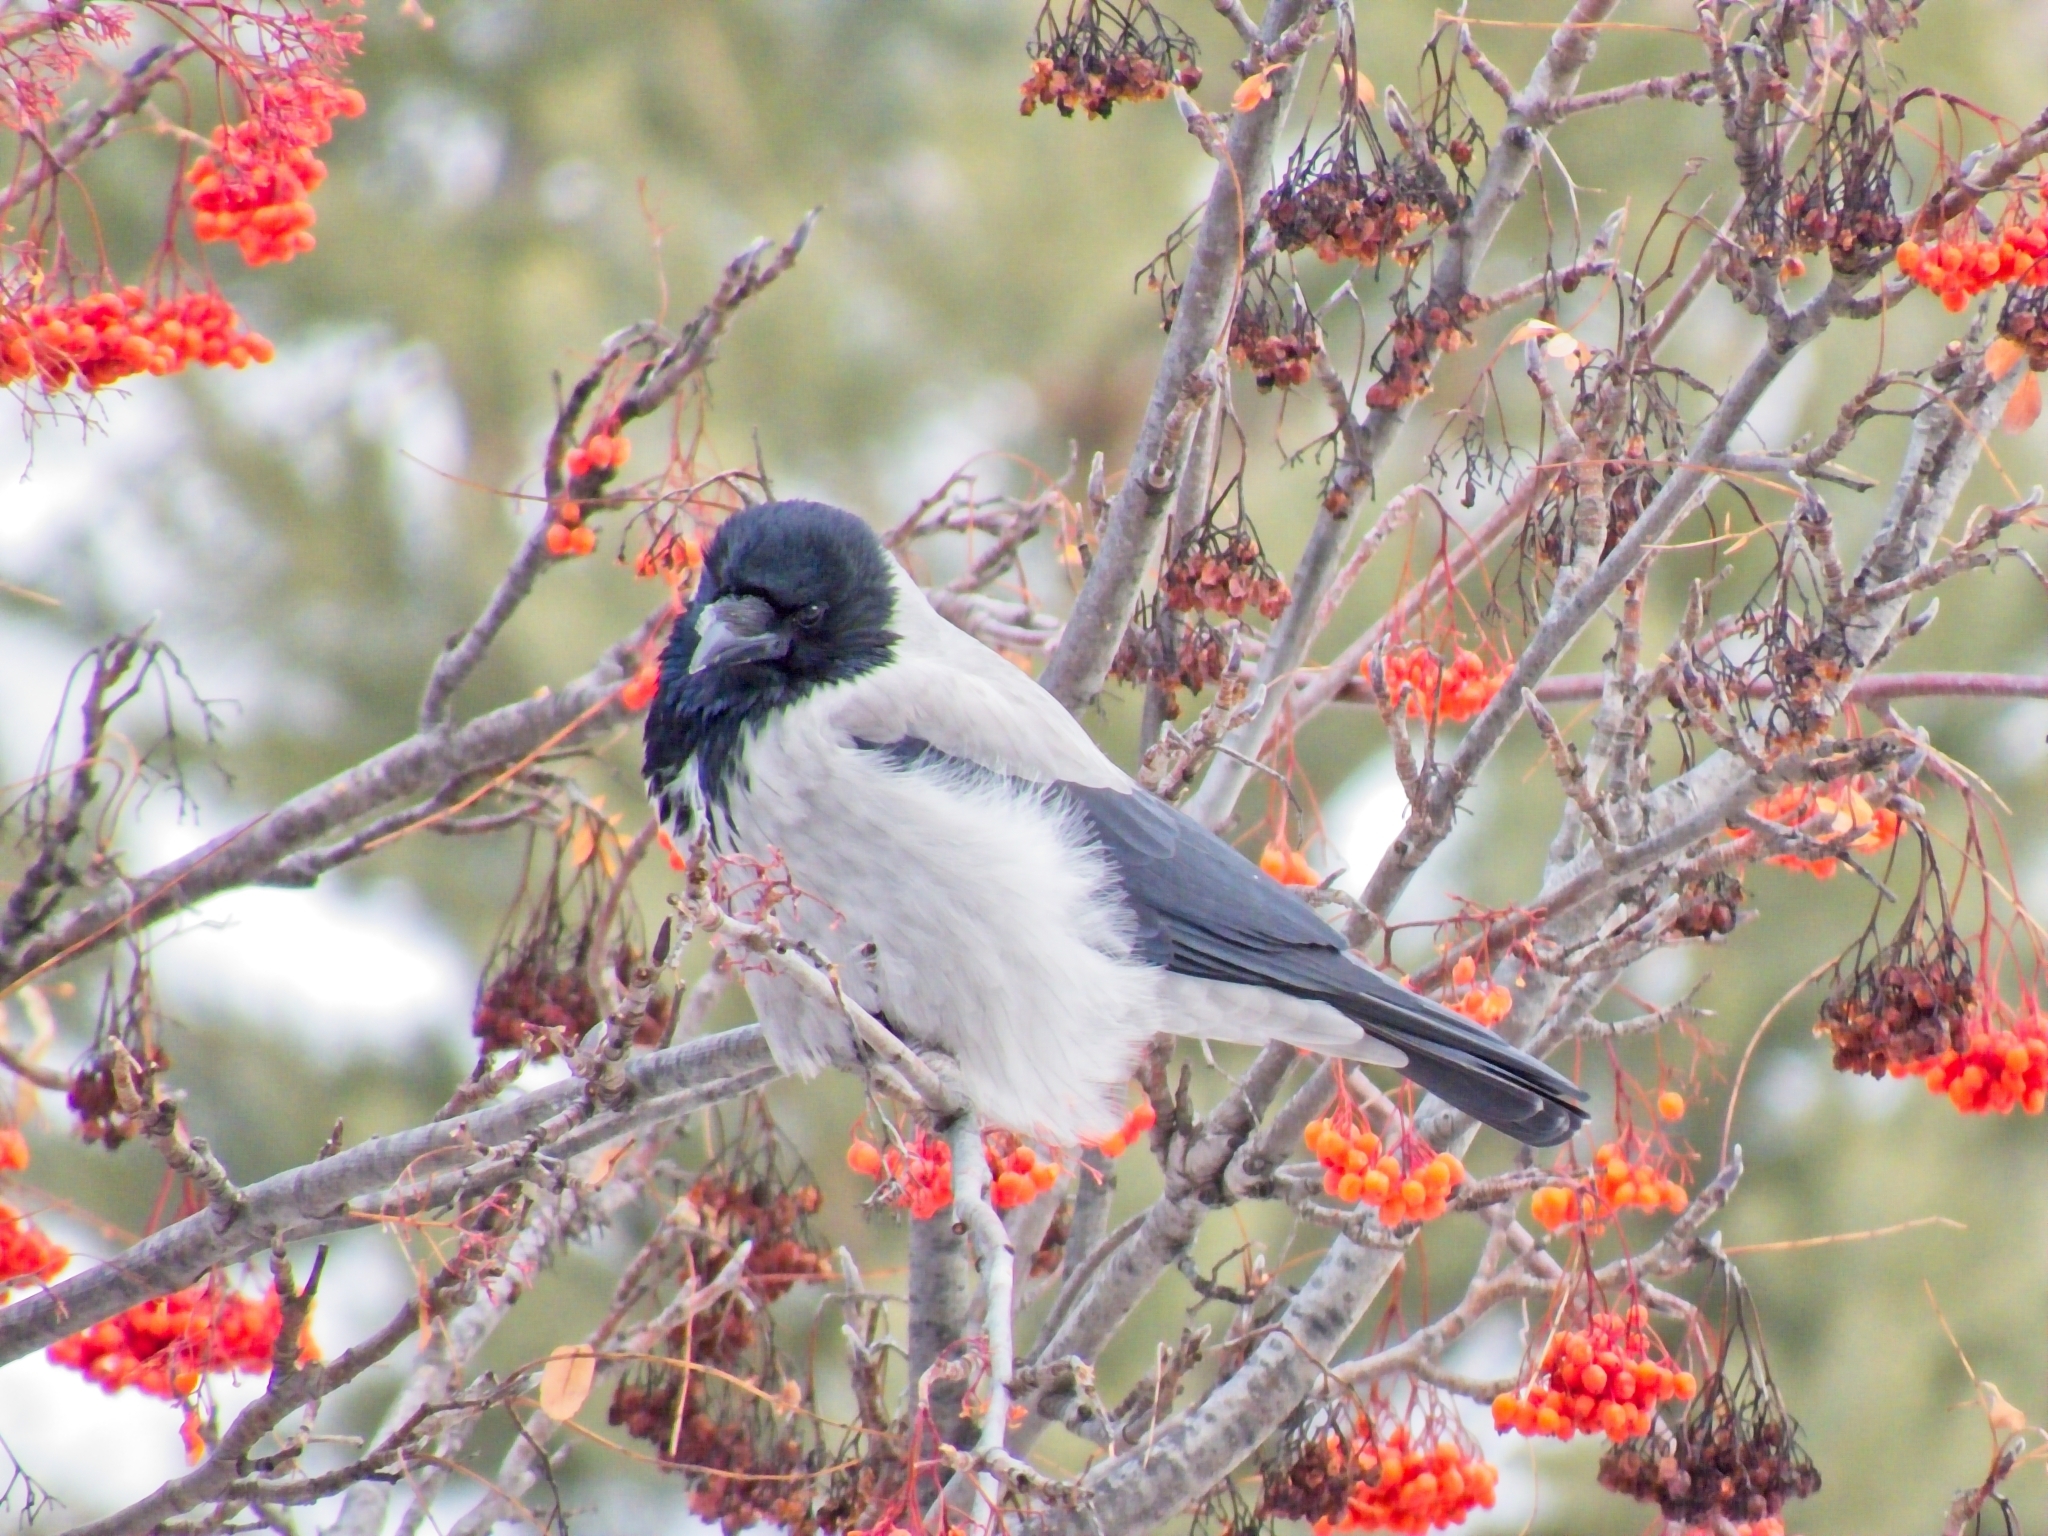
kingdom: Animalia
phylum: Chordata
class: Aves
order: Passeriformes
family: Corvidae
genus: Corvus
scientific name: Corvus cornix
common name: Hooded crow
